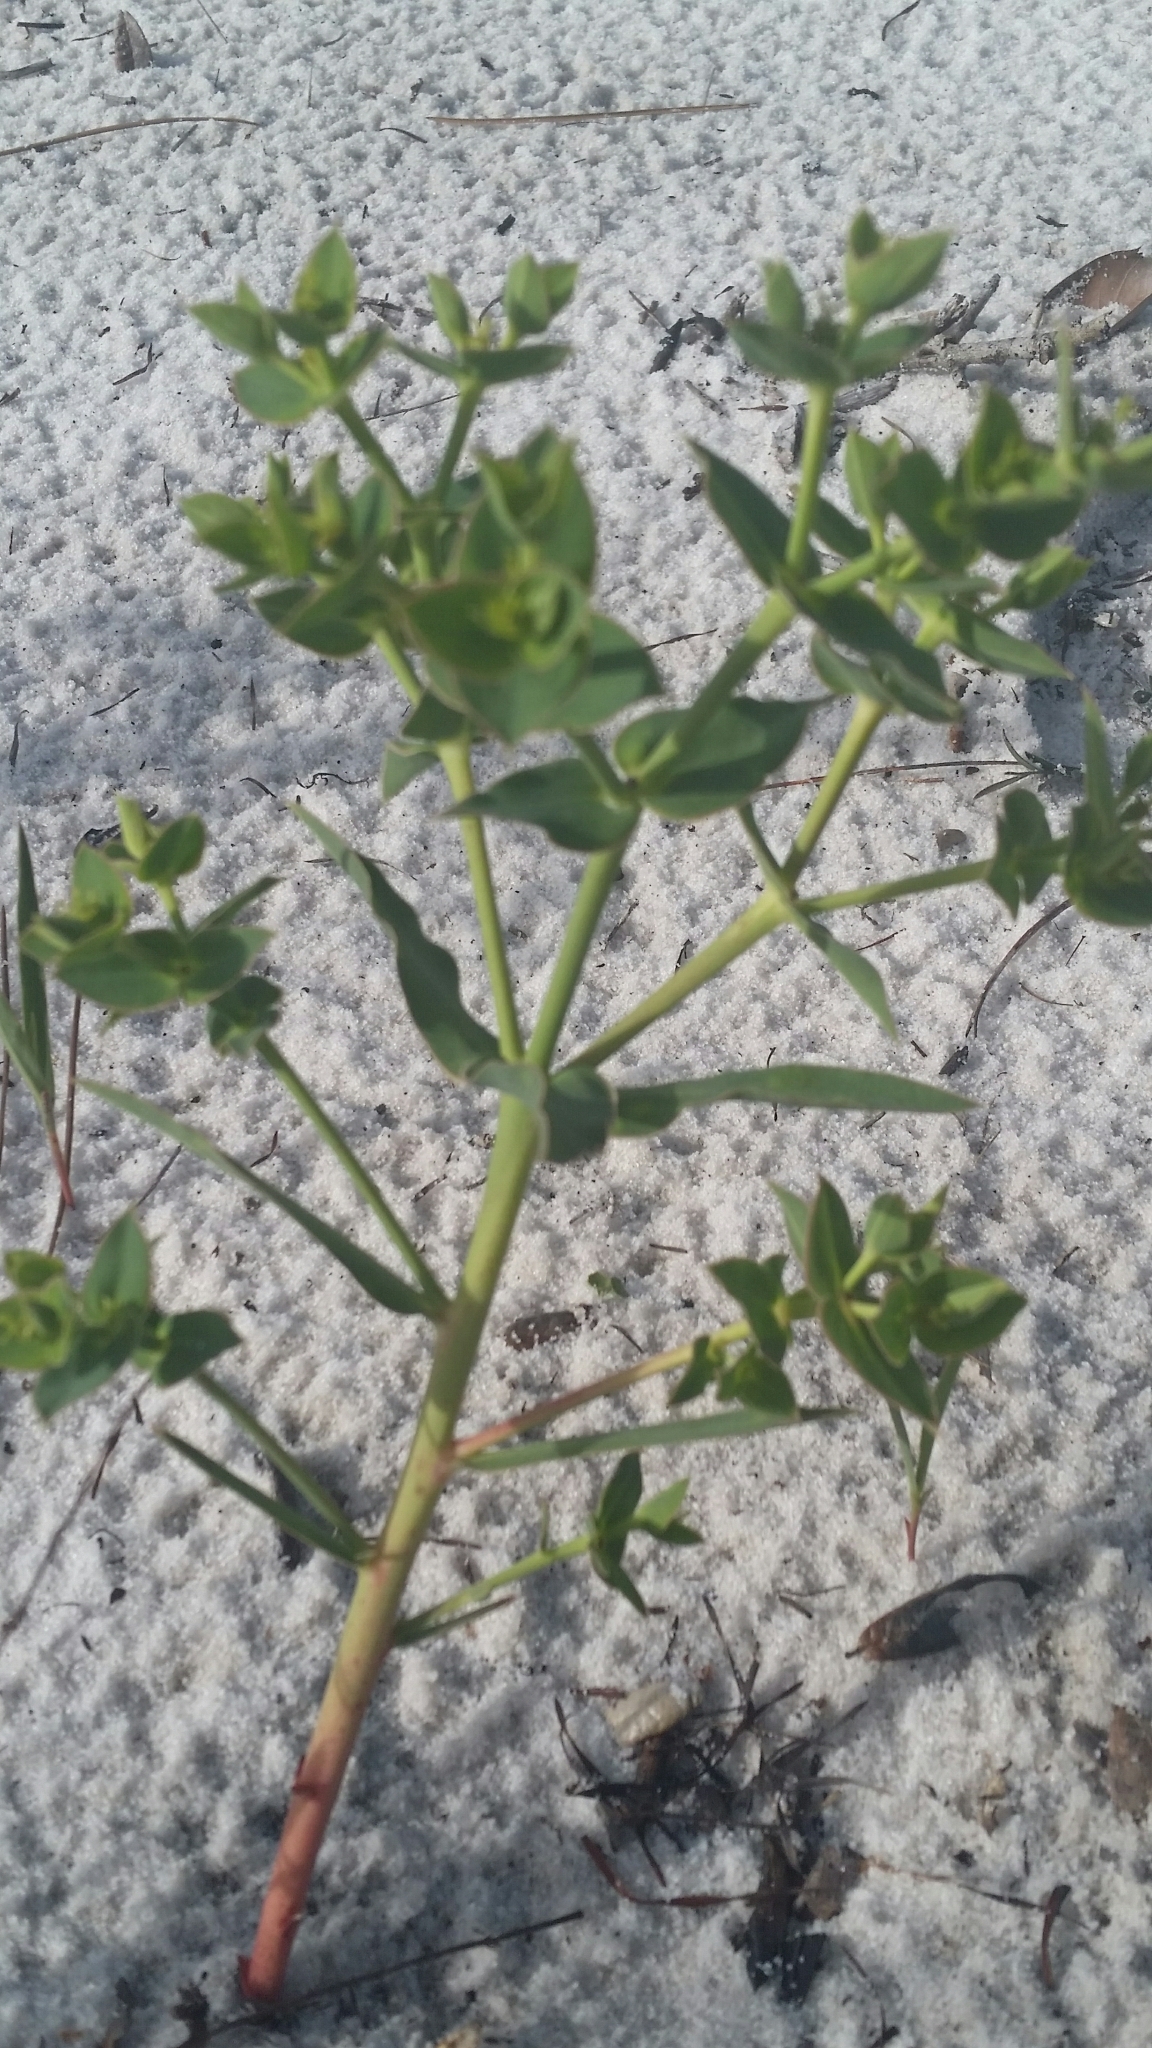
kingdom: Plantae
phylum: Tracheophyta
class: Magnoliopsida
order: Malpighiales
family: Euphorbiaceae
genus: Euphorbia
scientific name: Euphorbia rosescens
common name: Scrub spurge
